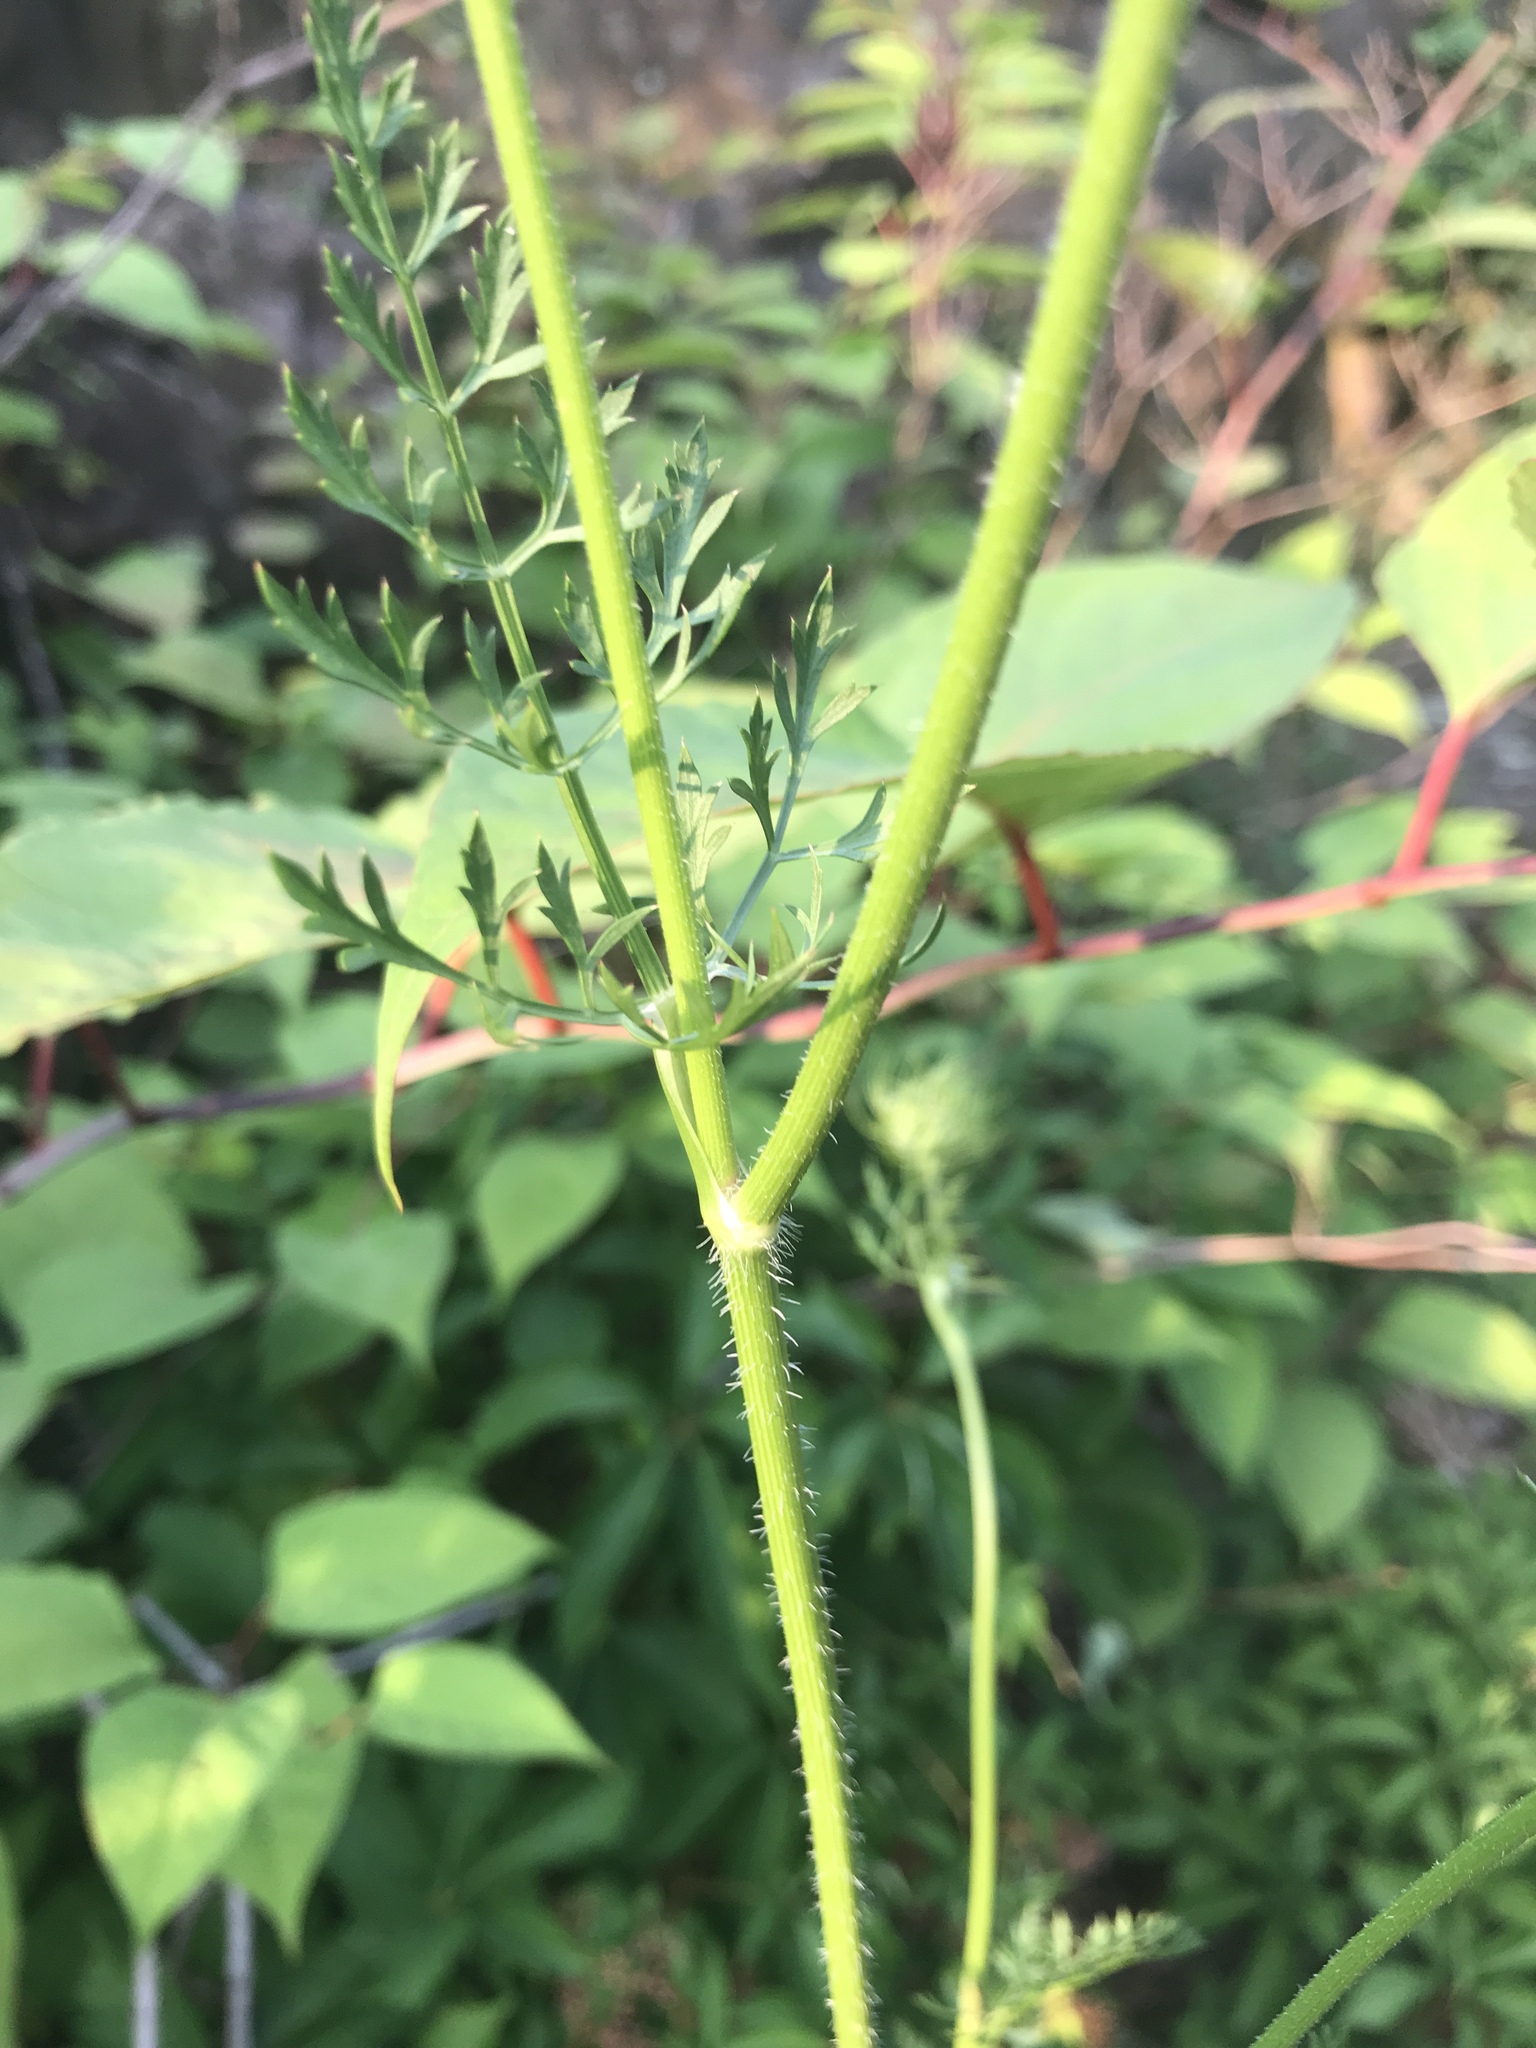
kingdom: Plantae
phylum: Tracheophyta
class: Magnoliopsida
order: Apiales
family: Apiaceae
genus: Daucus
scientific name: Daucus carota
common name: Wild carrot
